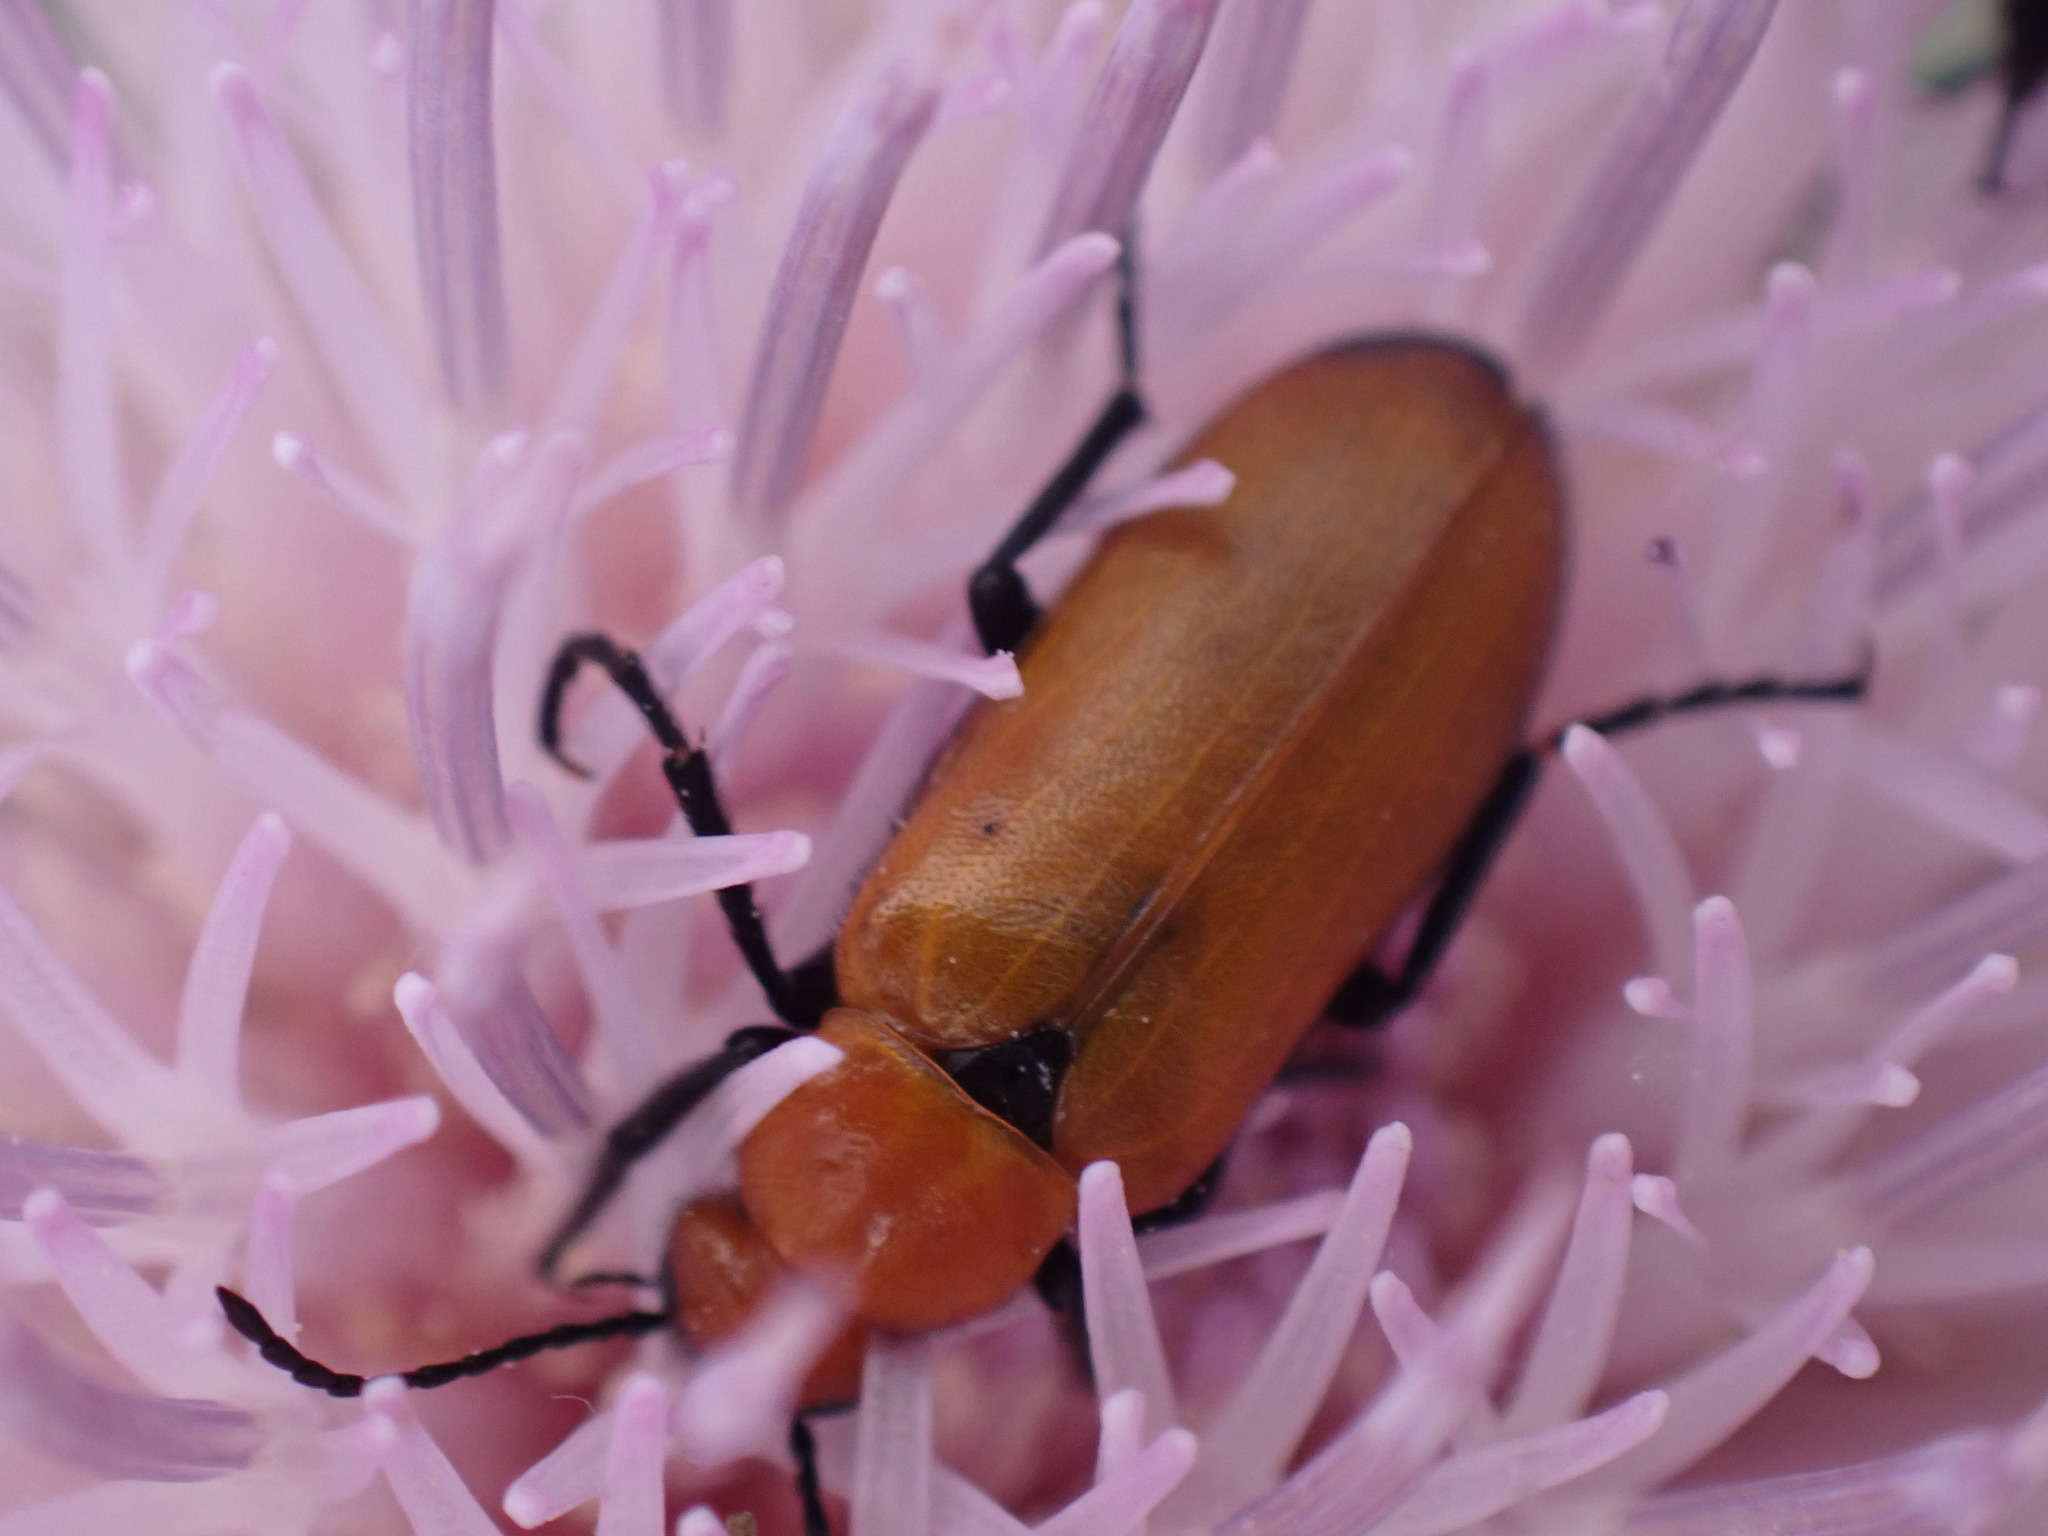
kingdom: Animalia
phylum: Arthropoda
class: Insecta
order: Coleoptera
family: Meloidae
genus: Nemognatha
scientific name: Nemognatha lutea
